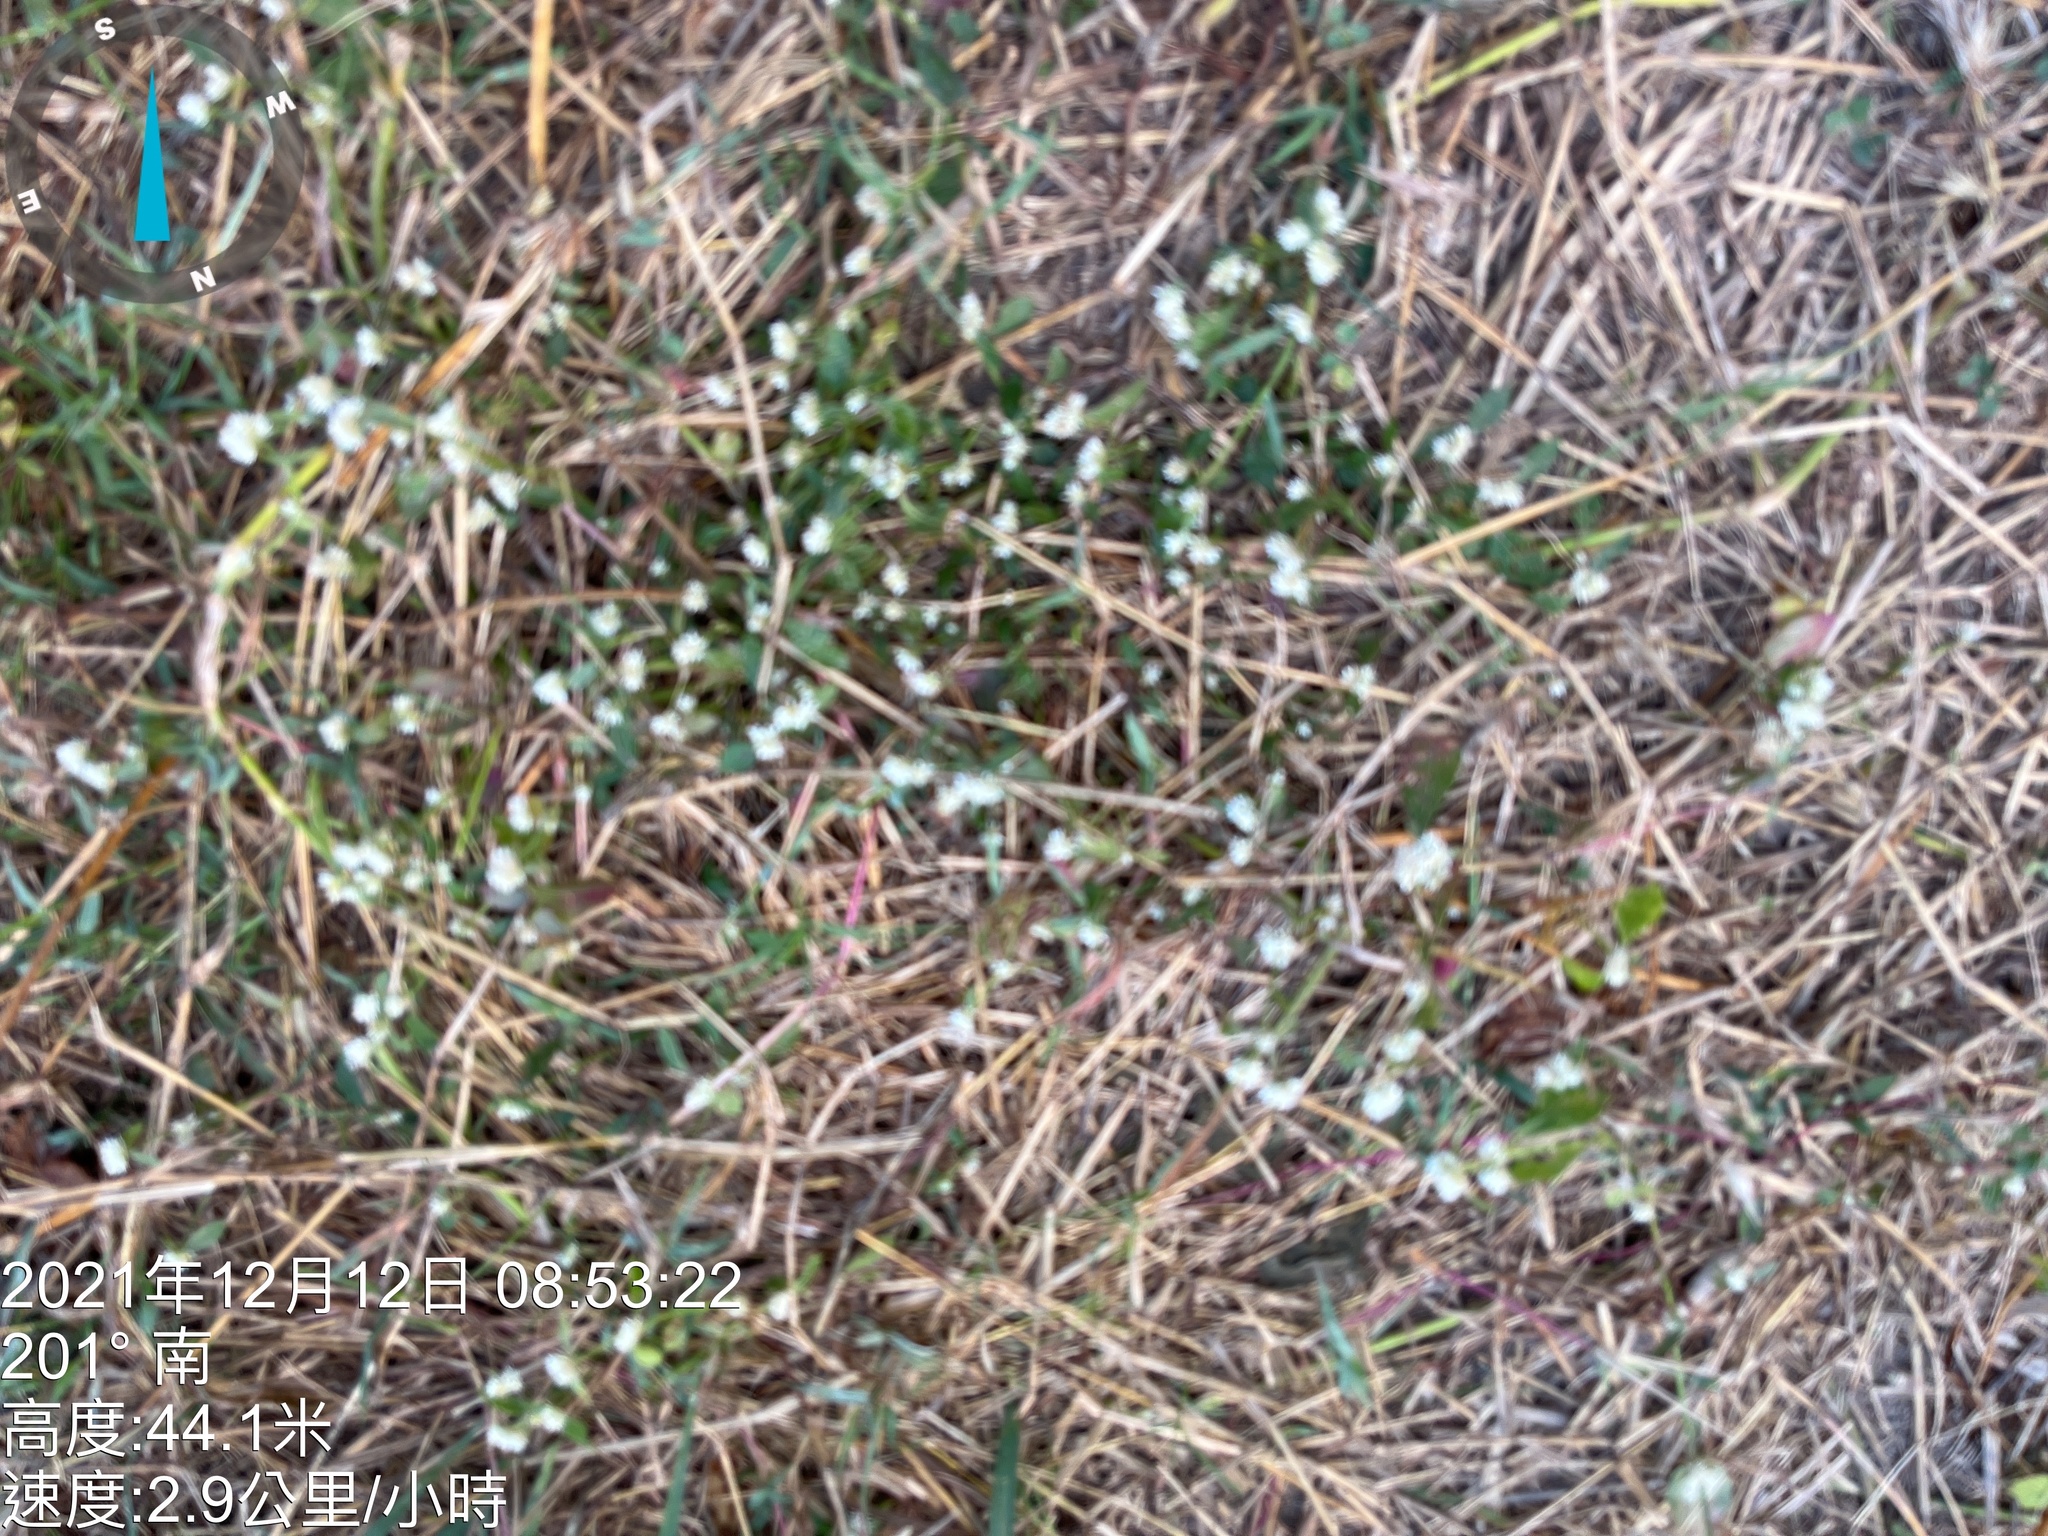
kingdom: Plantae
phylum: Tracheophyta
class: Magnoliopsida
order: Caryophyllales
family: Amaranthaceae
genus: Alternanthera
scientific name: Alternanthera bettzickiana
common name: Calico-plant
